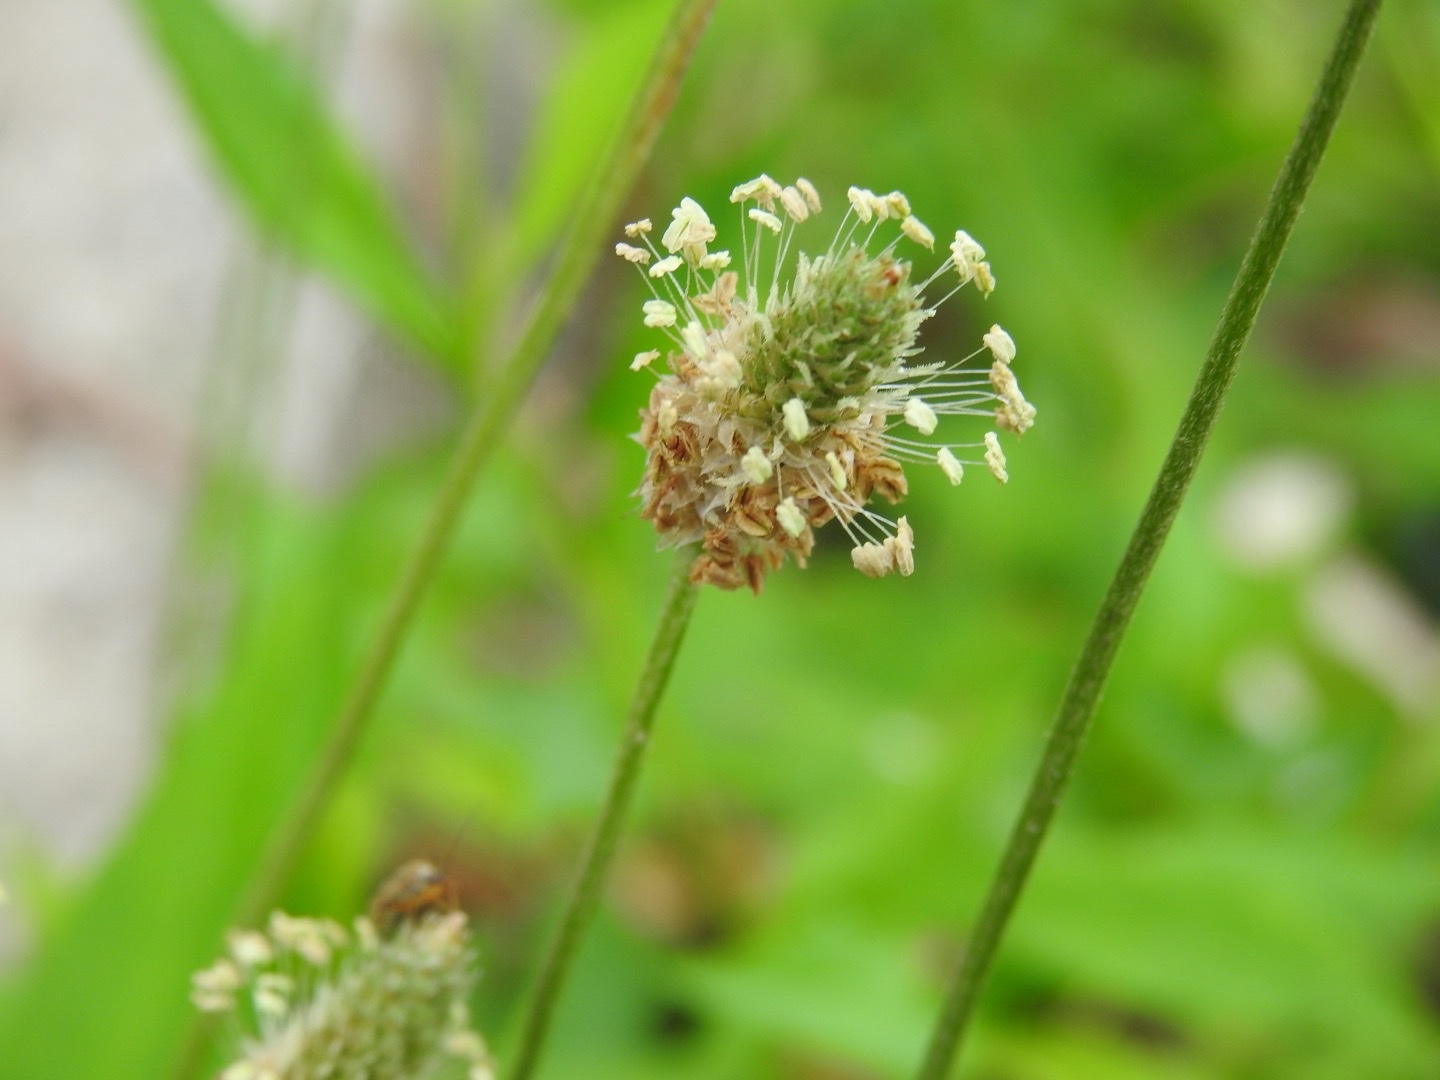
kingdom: Plantae
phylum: Tracheophyta
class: Magnoliopsida
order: Lamiales
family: Plantaginaceae
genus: Plantago
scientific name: Plantago lanceolata
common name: Ribwort plantain
